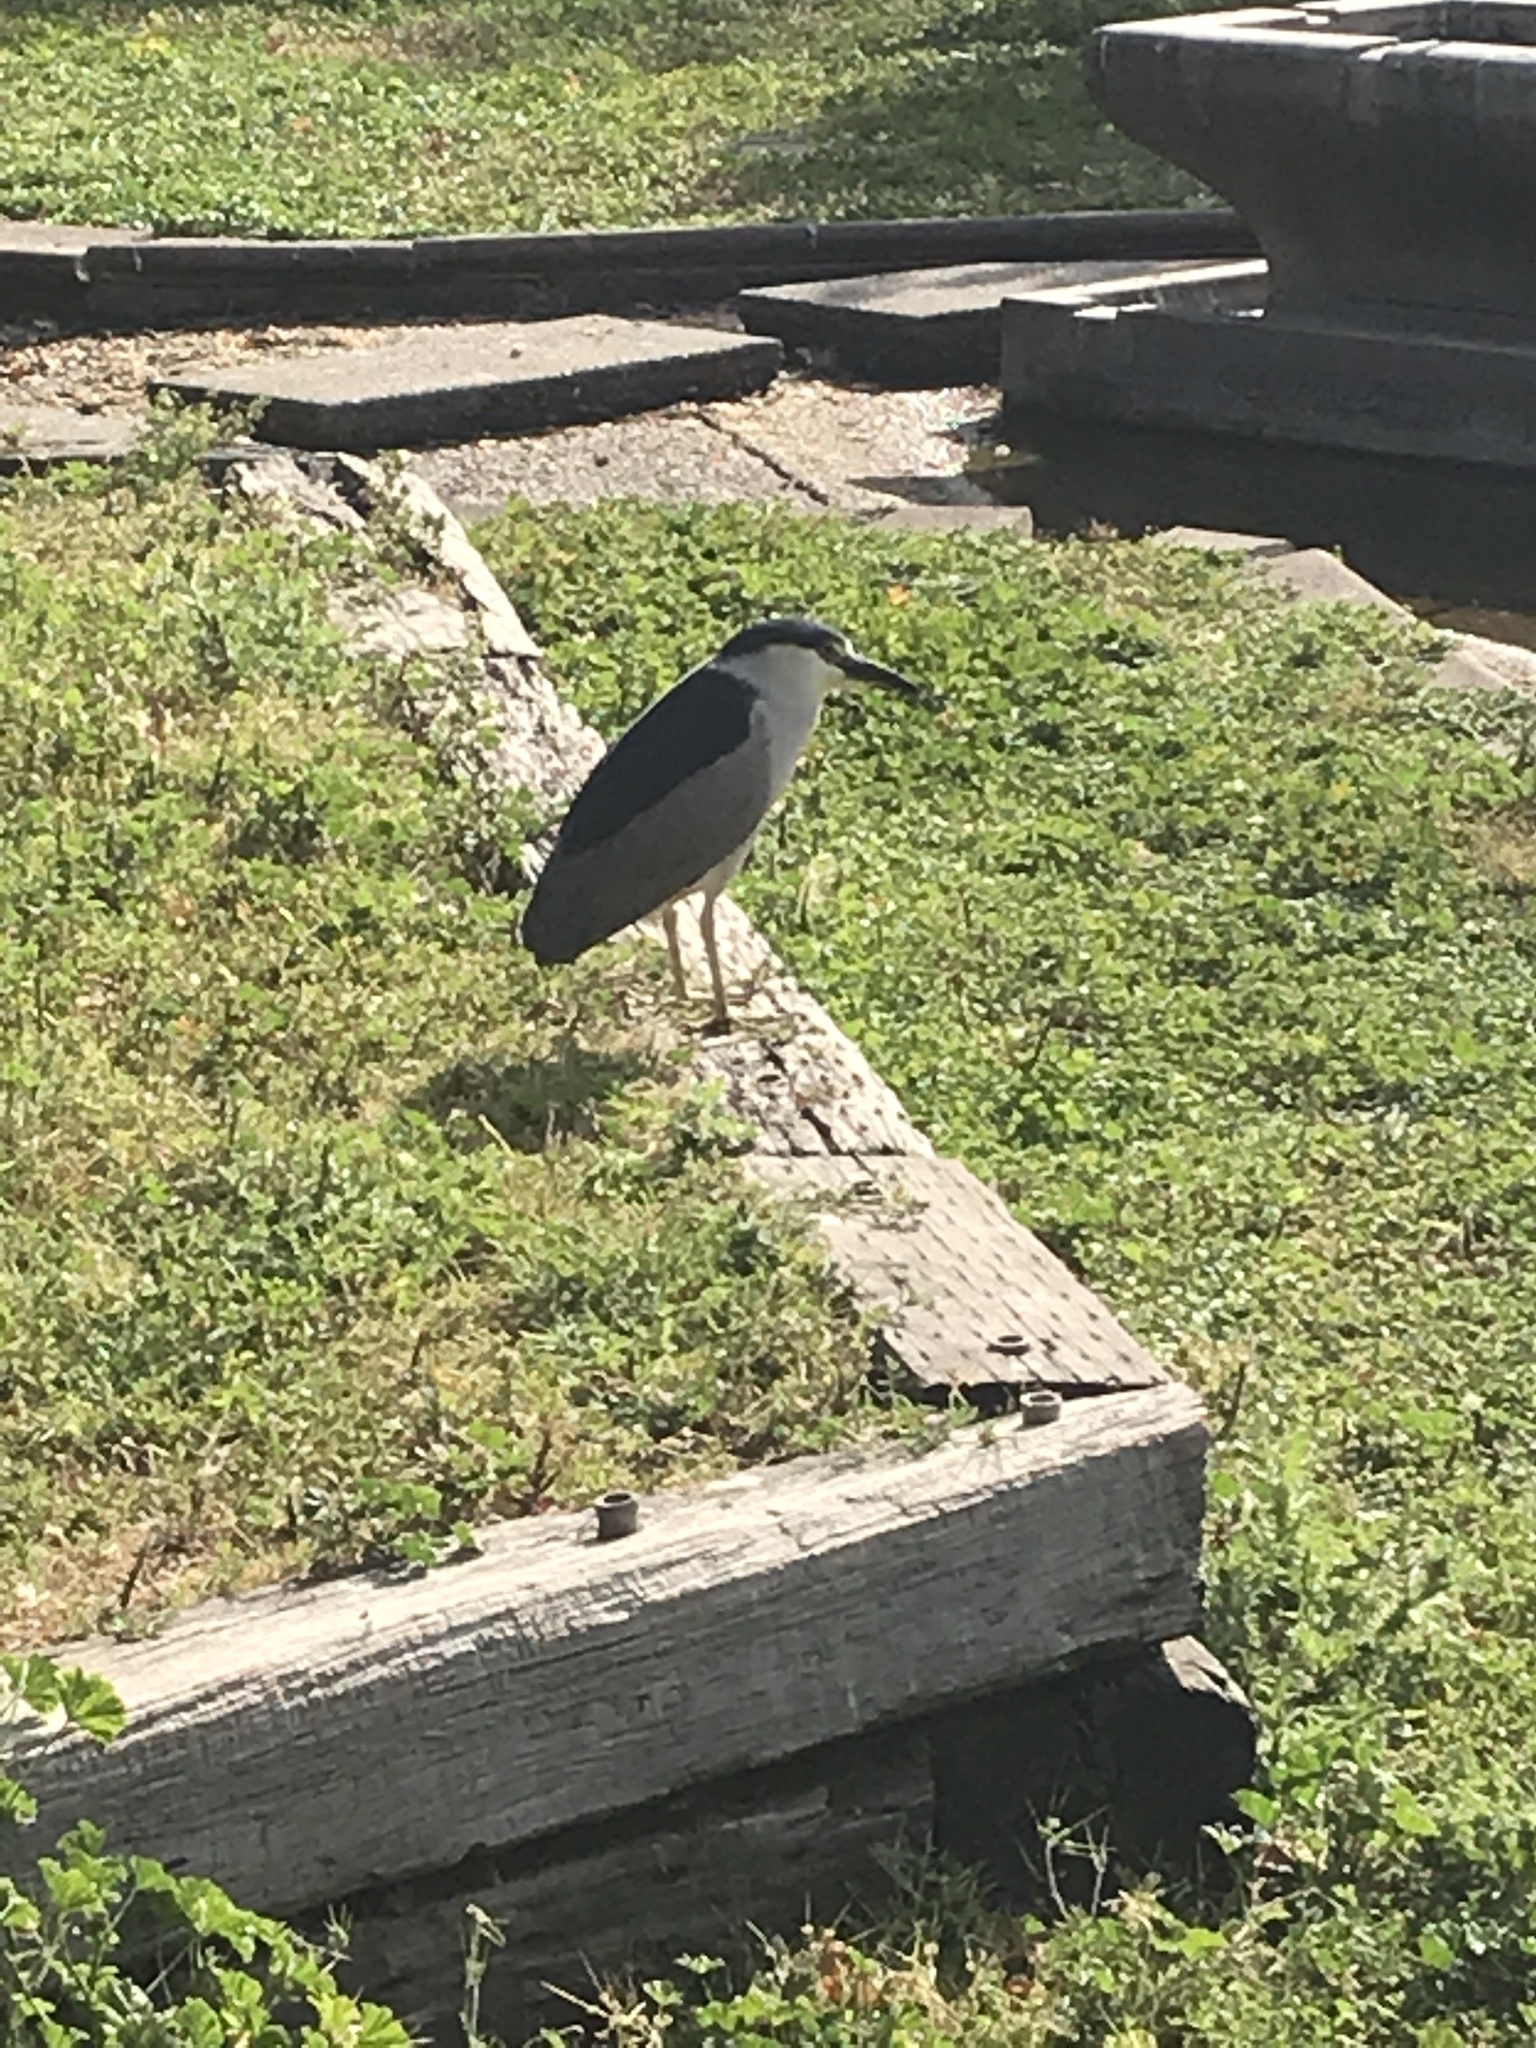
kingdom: Animalia
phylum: Chordata
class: Aves
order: Pelecaniformes
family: Ardeidae
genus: Nycticorax
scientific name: Nycticorax nycticorax
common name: Black-crowned night heron
